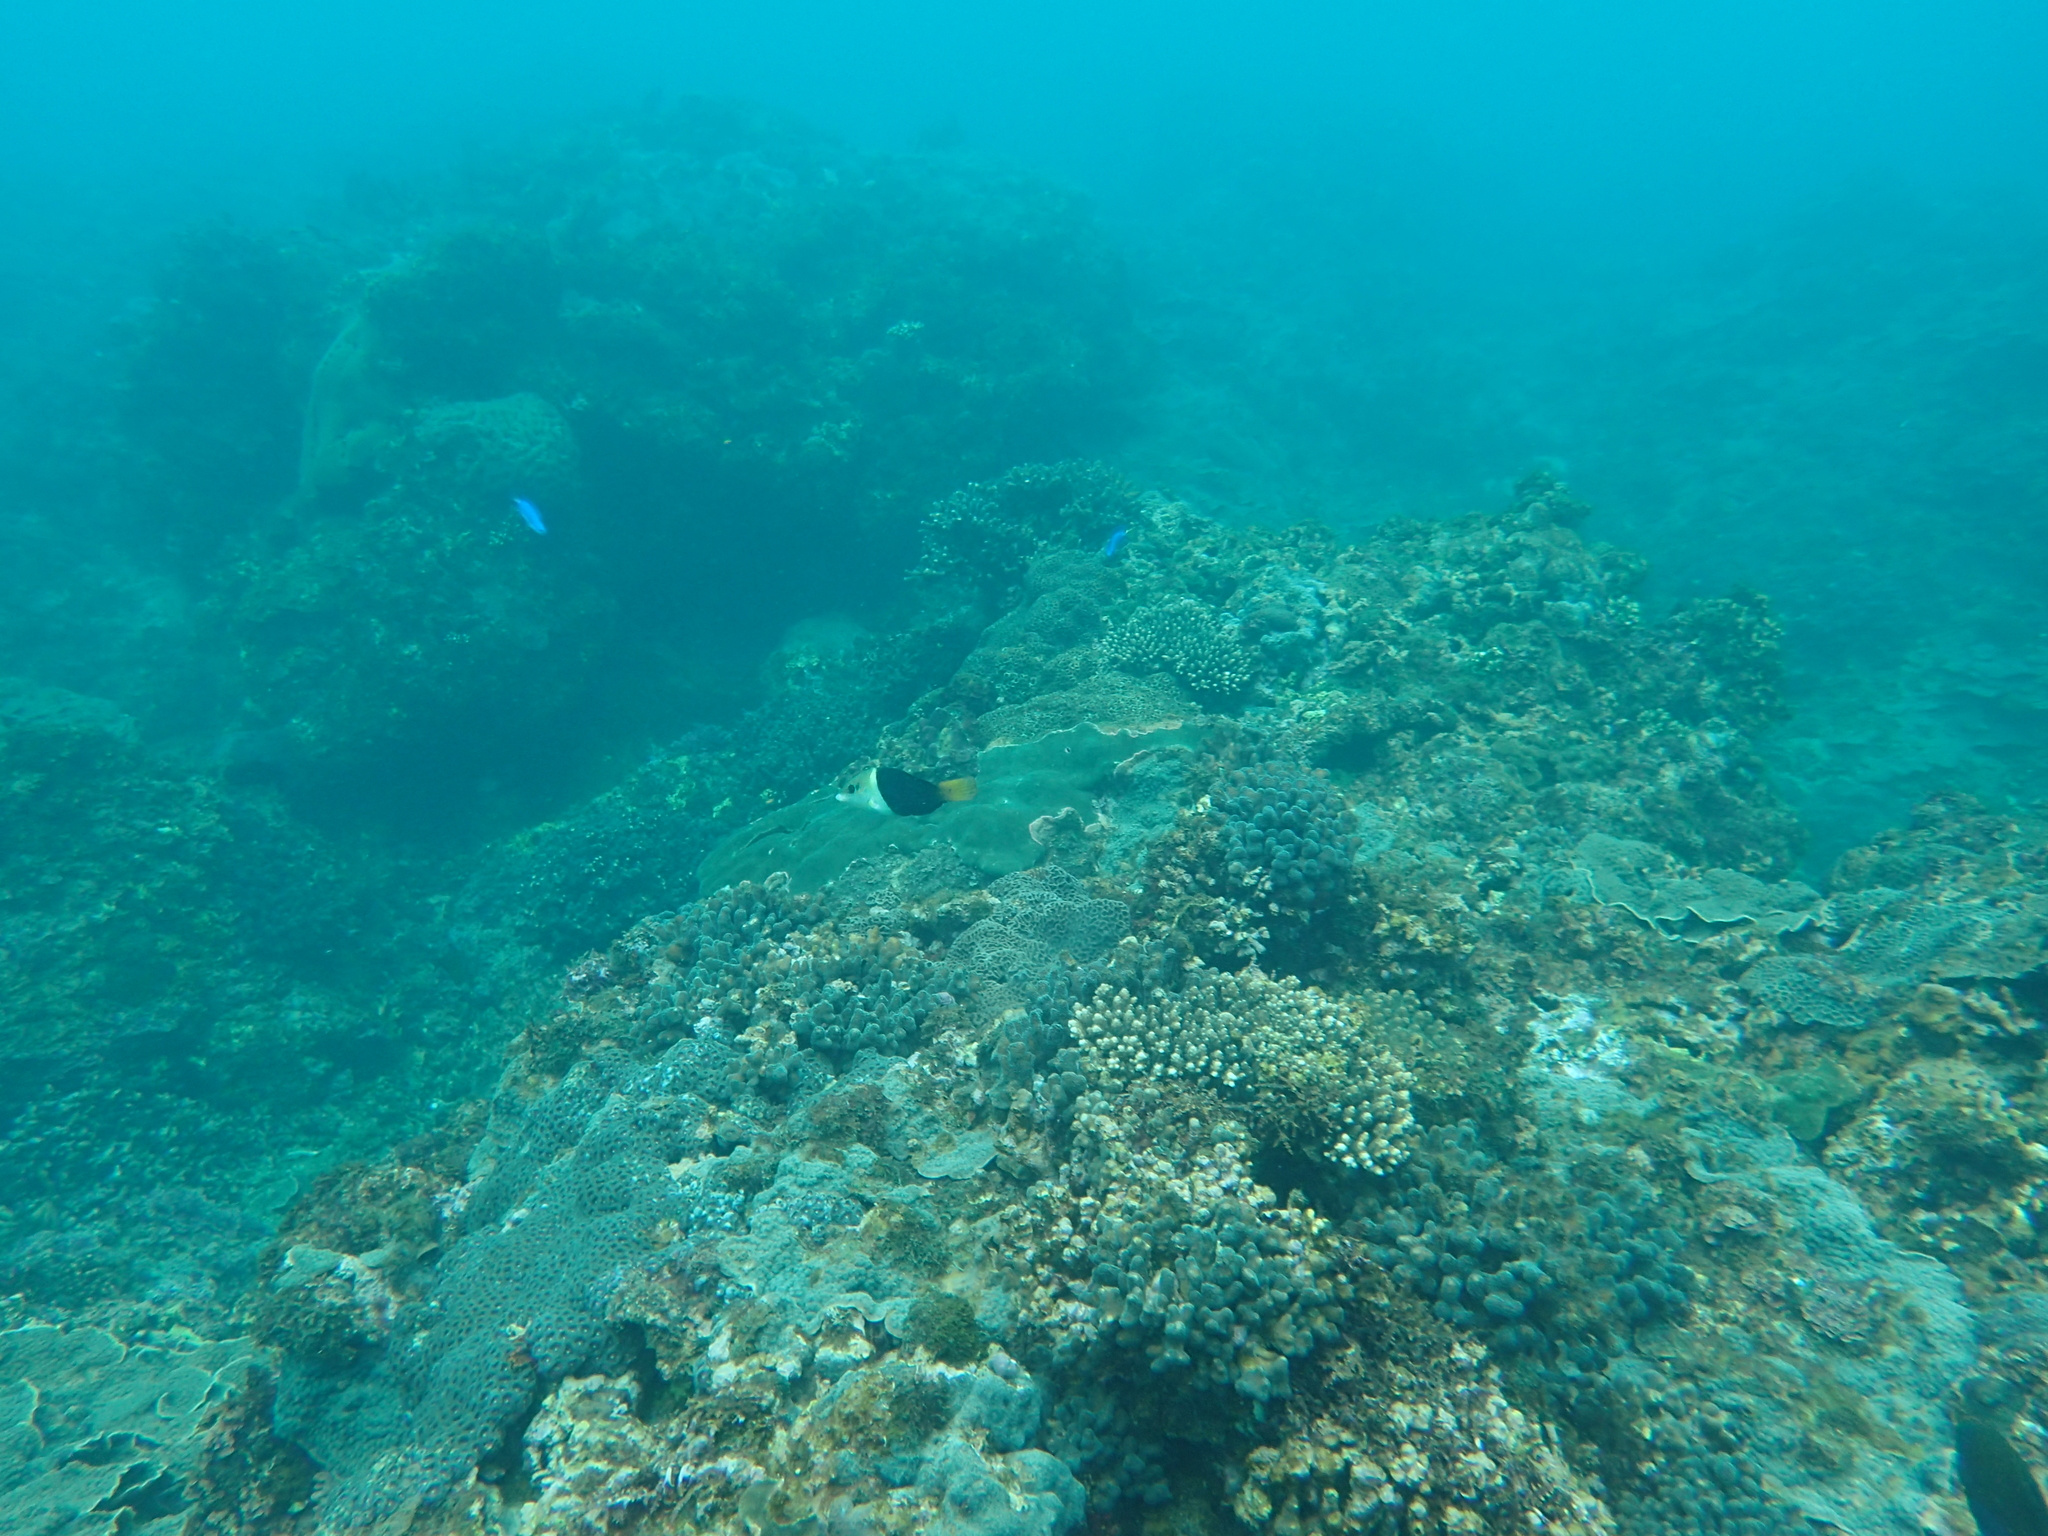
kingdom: Animalia
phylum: Chordata
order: Perciformes
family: Labridae
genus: Hemigymnus
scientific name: Hemigymnus melapterus
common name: Blackeye thicklip
